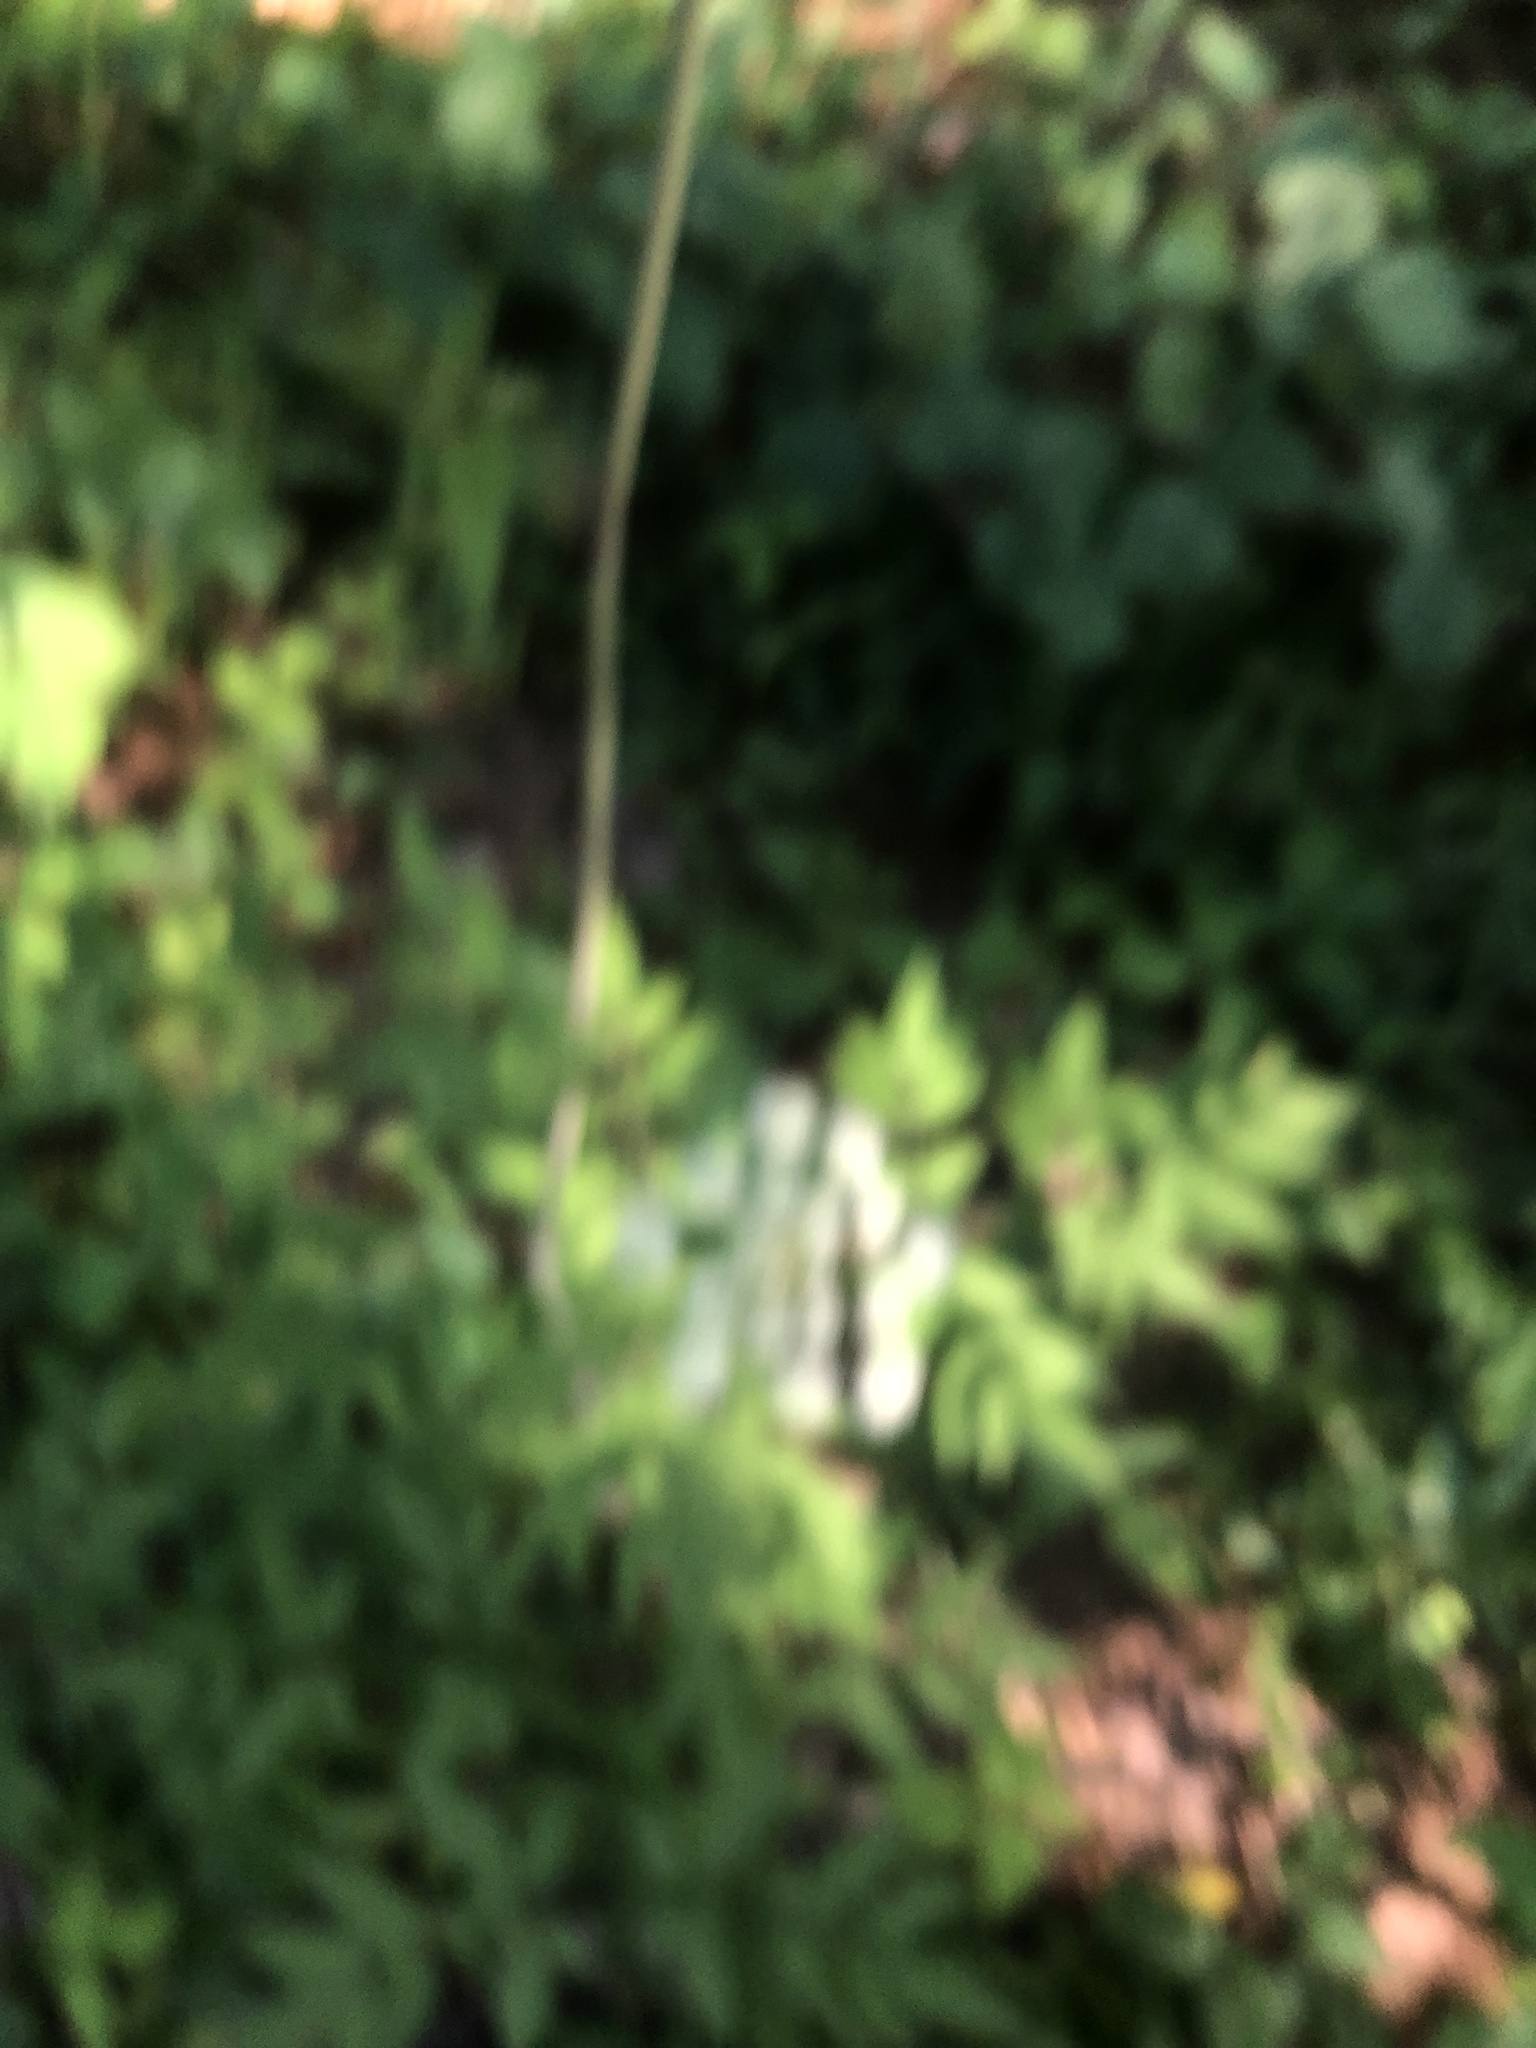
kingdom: Plantae
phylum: Tracheophyta
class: Magnoliopsida
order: Apiales
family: Apiaceae
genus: Cicuta
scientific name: Cicuta maculata
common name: Spotted cowbane
